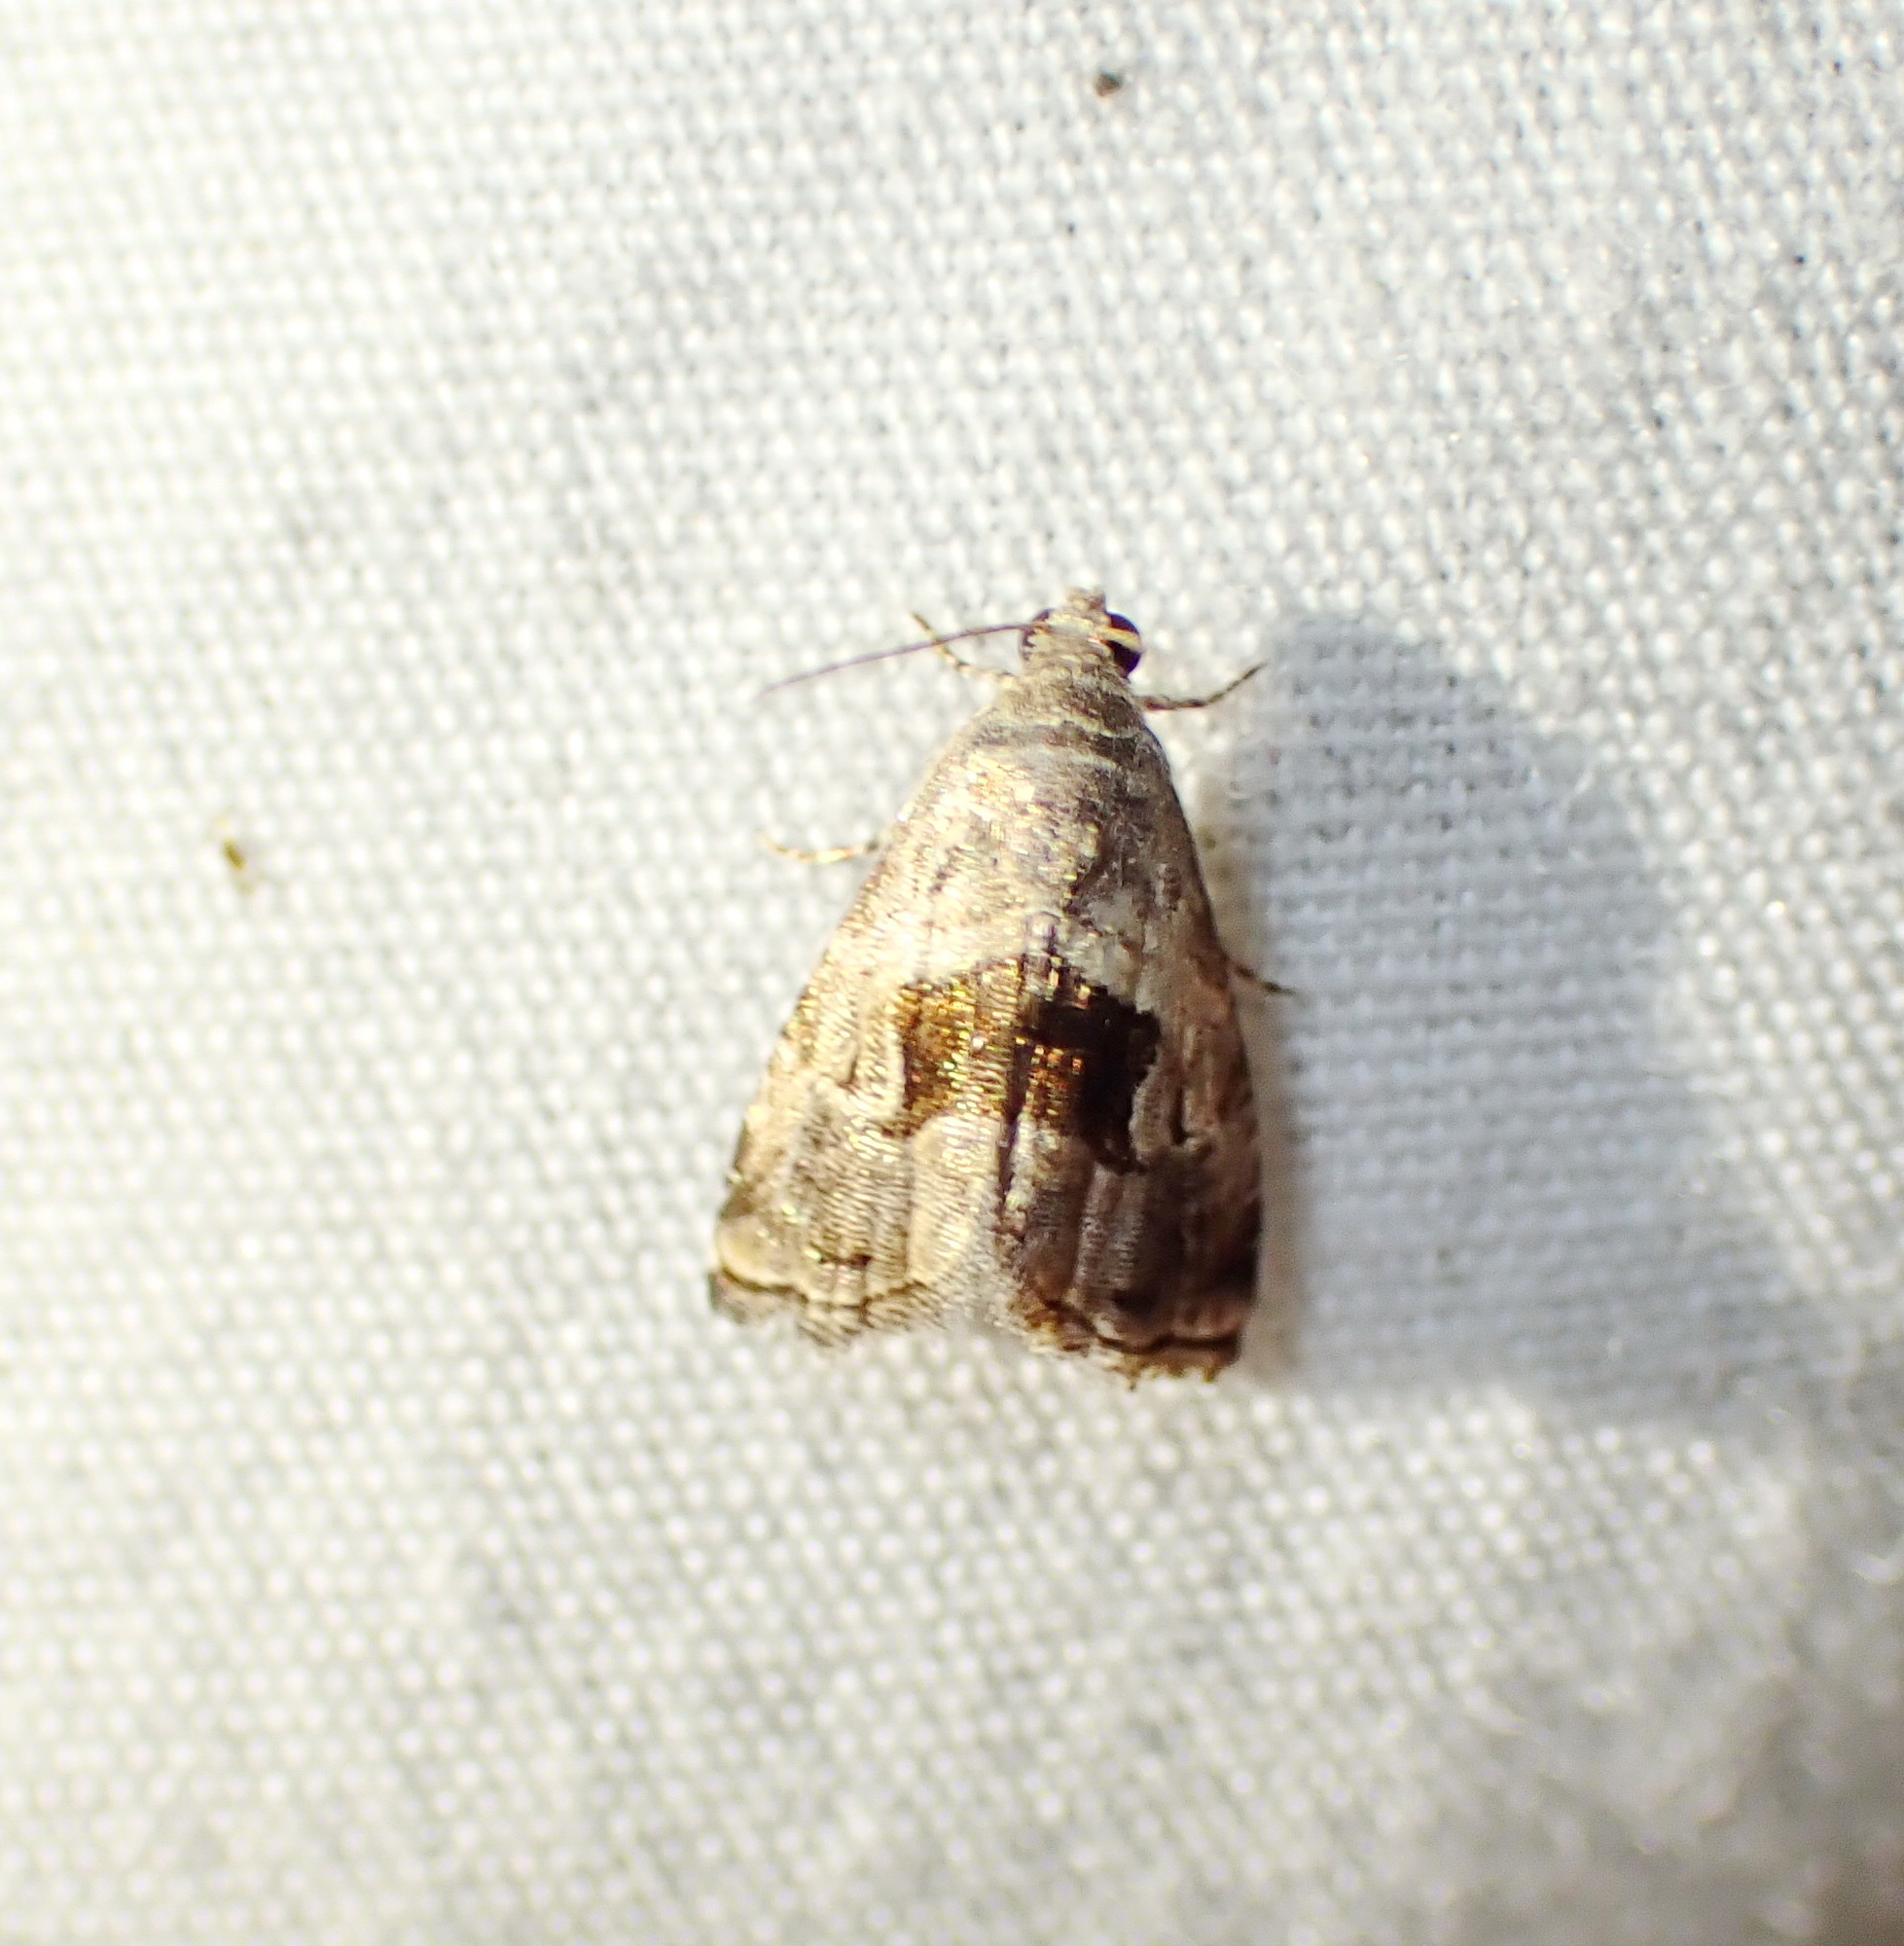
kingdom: Animalia
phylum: Arthropoda
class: Insecta
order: Lepidoptera
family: Noctuidae
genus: Tripudia
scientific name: Tripudia quadrifera
